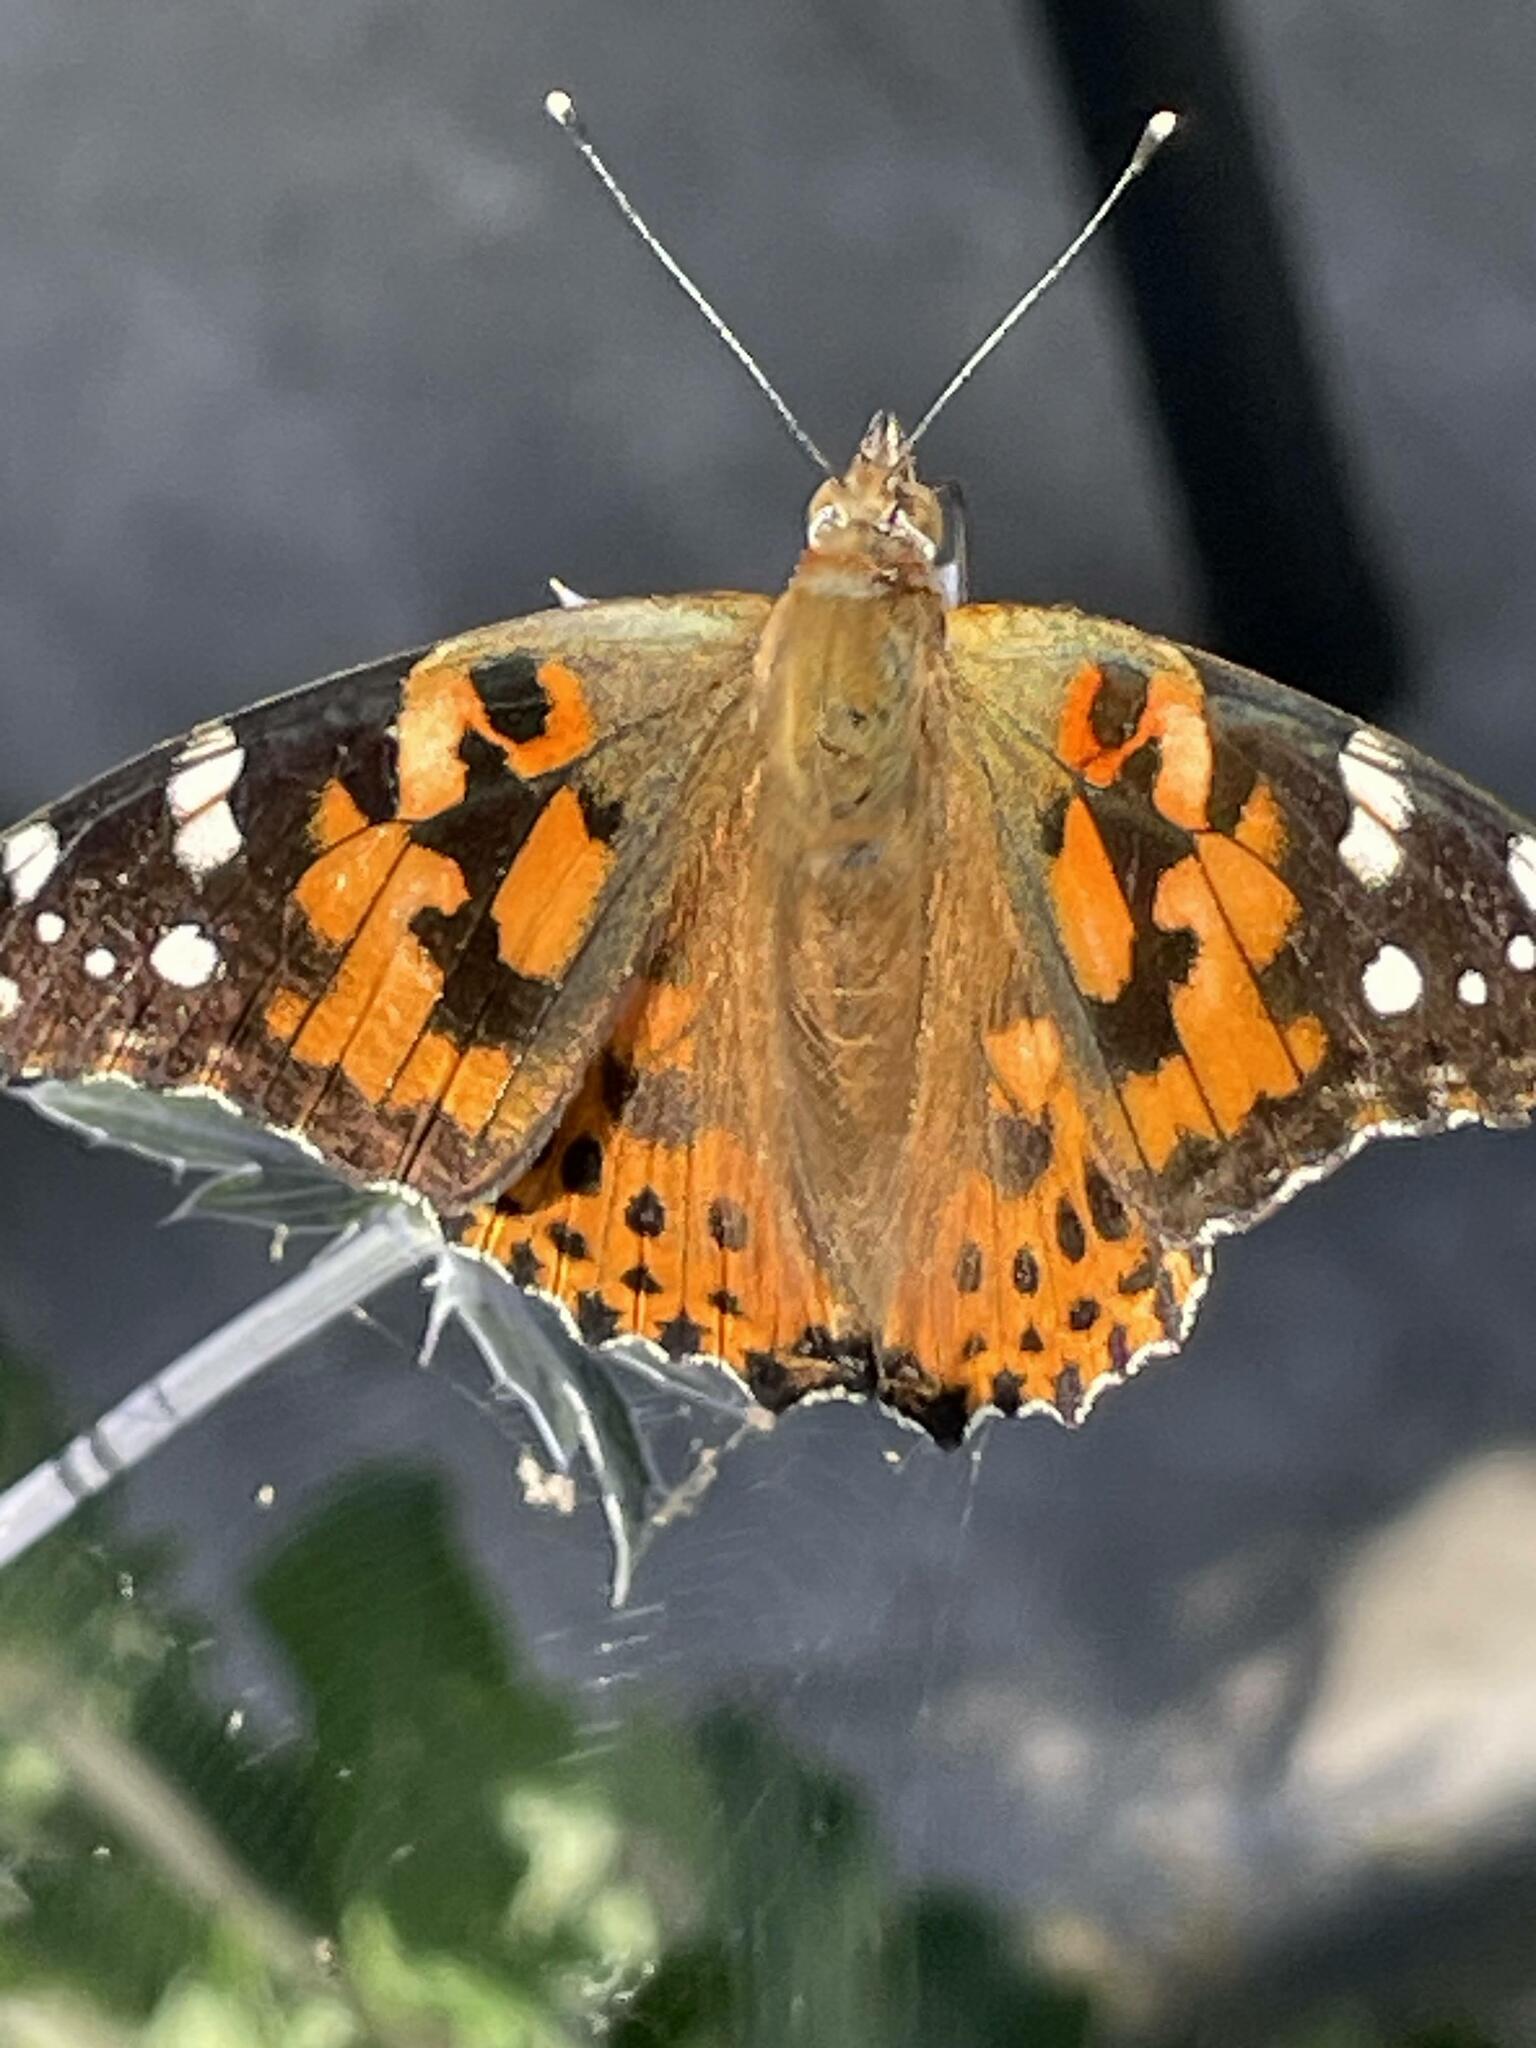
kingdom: Animalia
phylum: Arthropoda
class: Insecta
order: Lepidoptera
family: Nymphalidae
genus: Vanessa
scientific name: Vanessa cardui
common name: Painted lady
